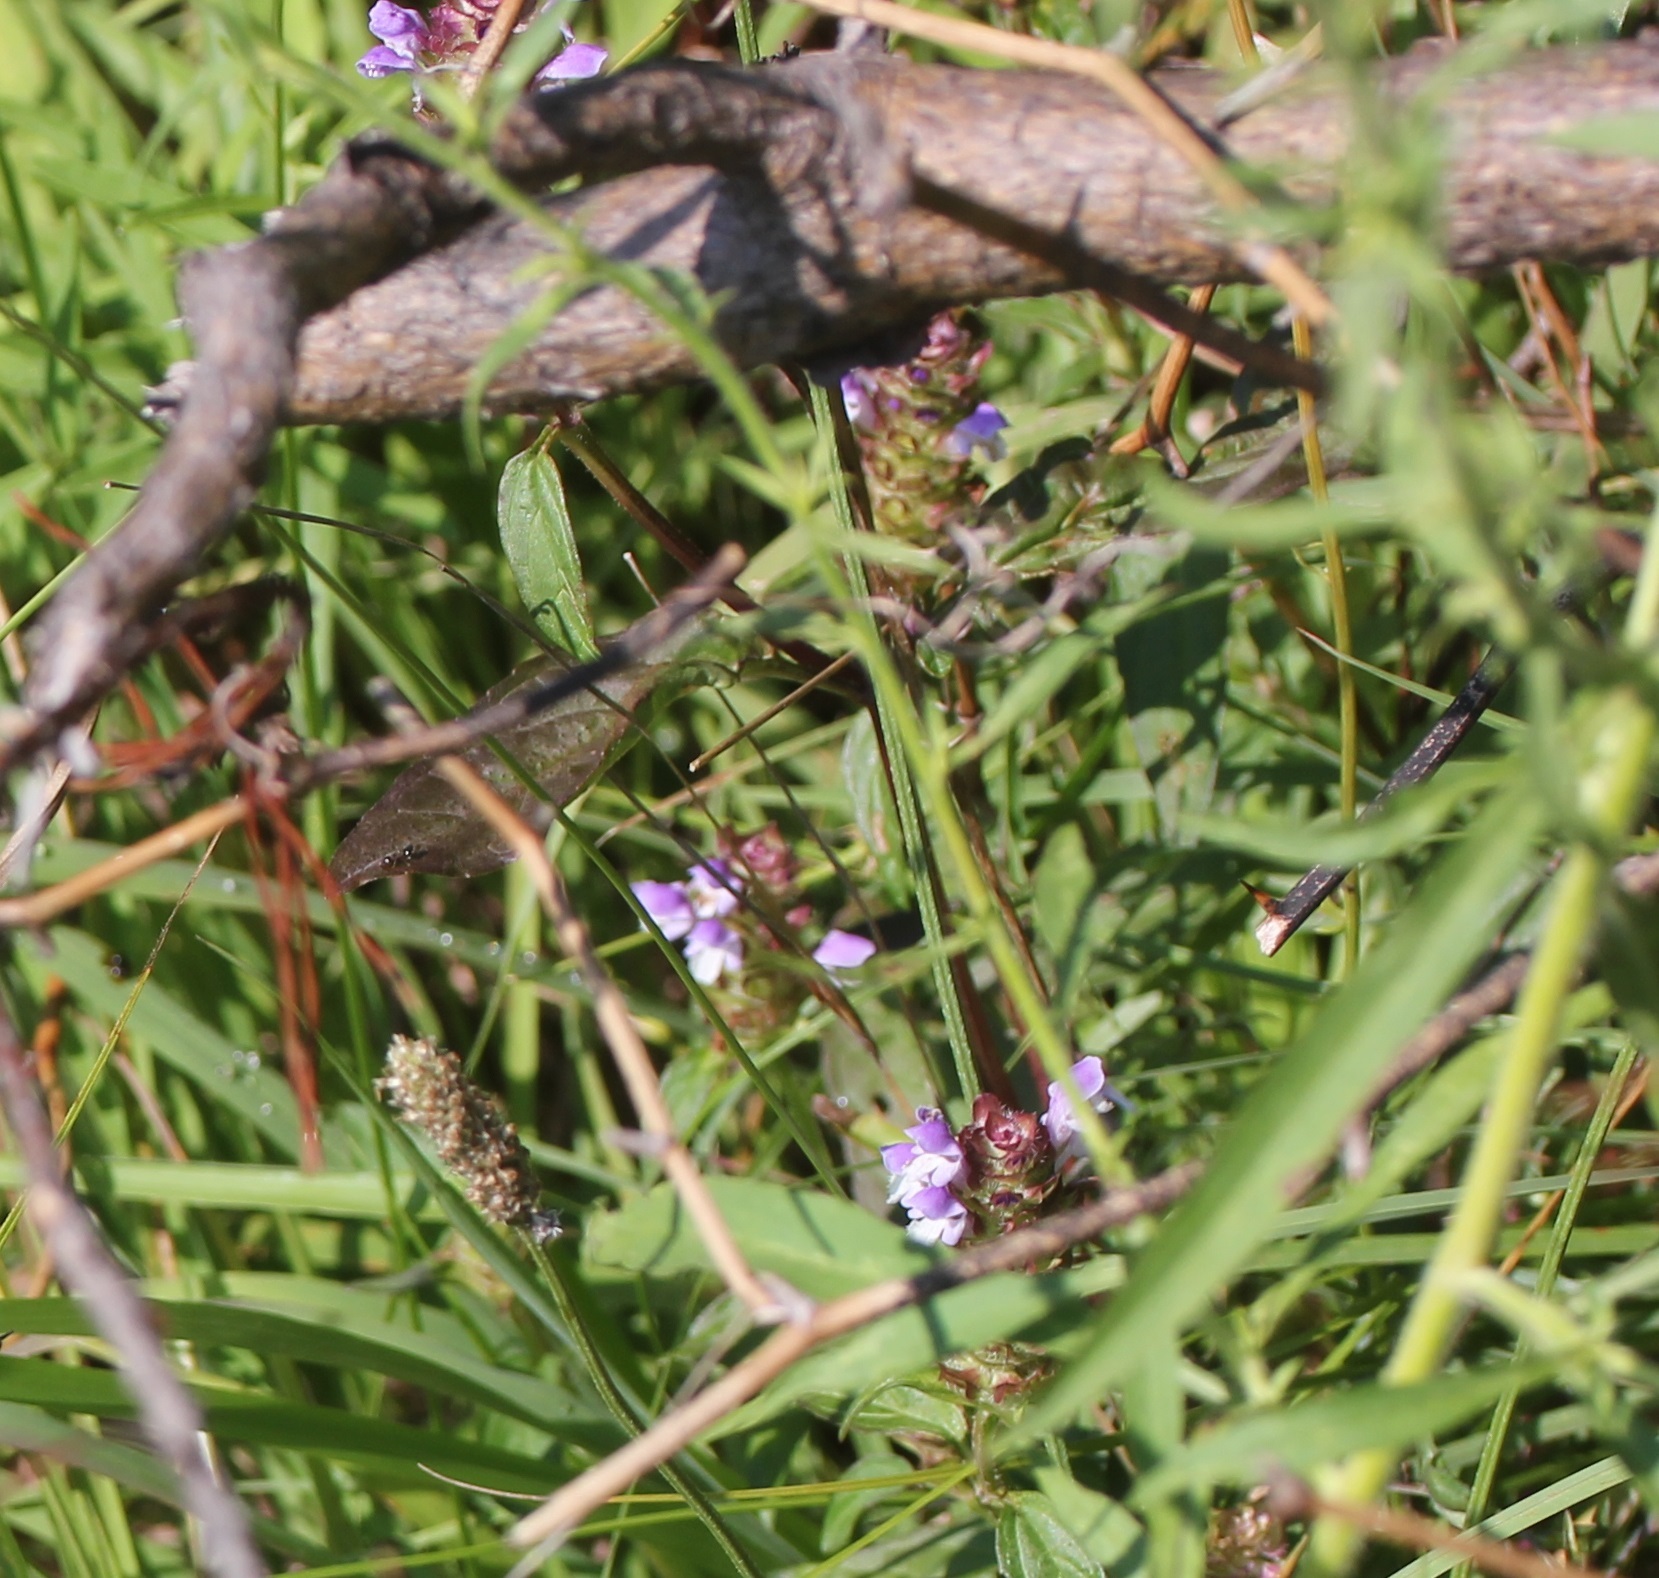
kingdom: Plantae
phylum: Tracheophyta
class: Magnoliopsida
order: Lamiales
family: Lamiaceae
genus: Prunella
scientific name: Prunella vulgaris
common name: Heal-all
